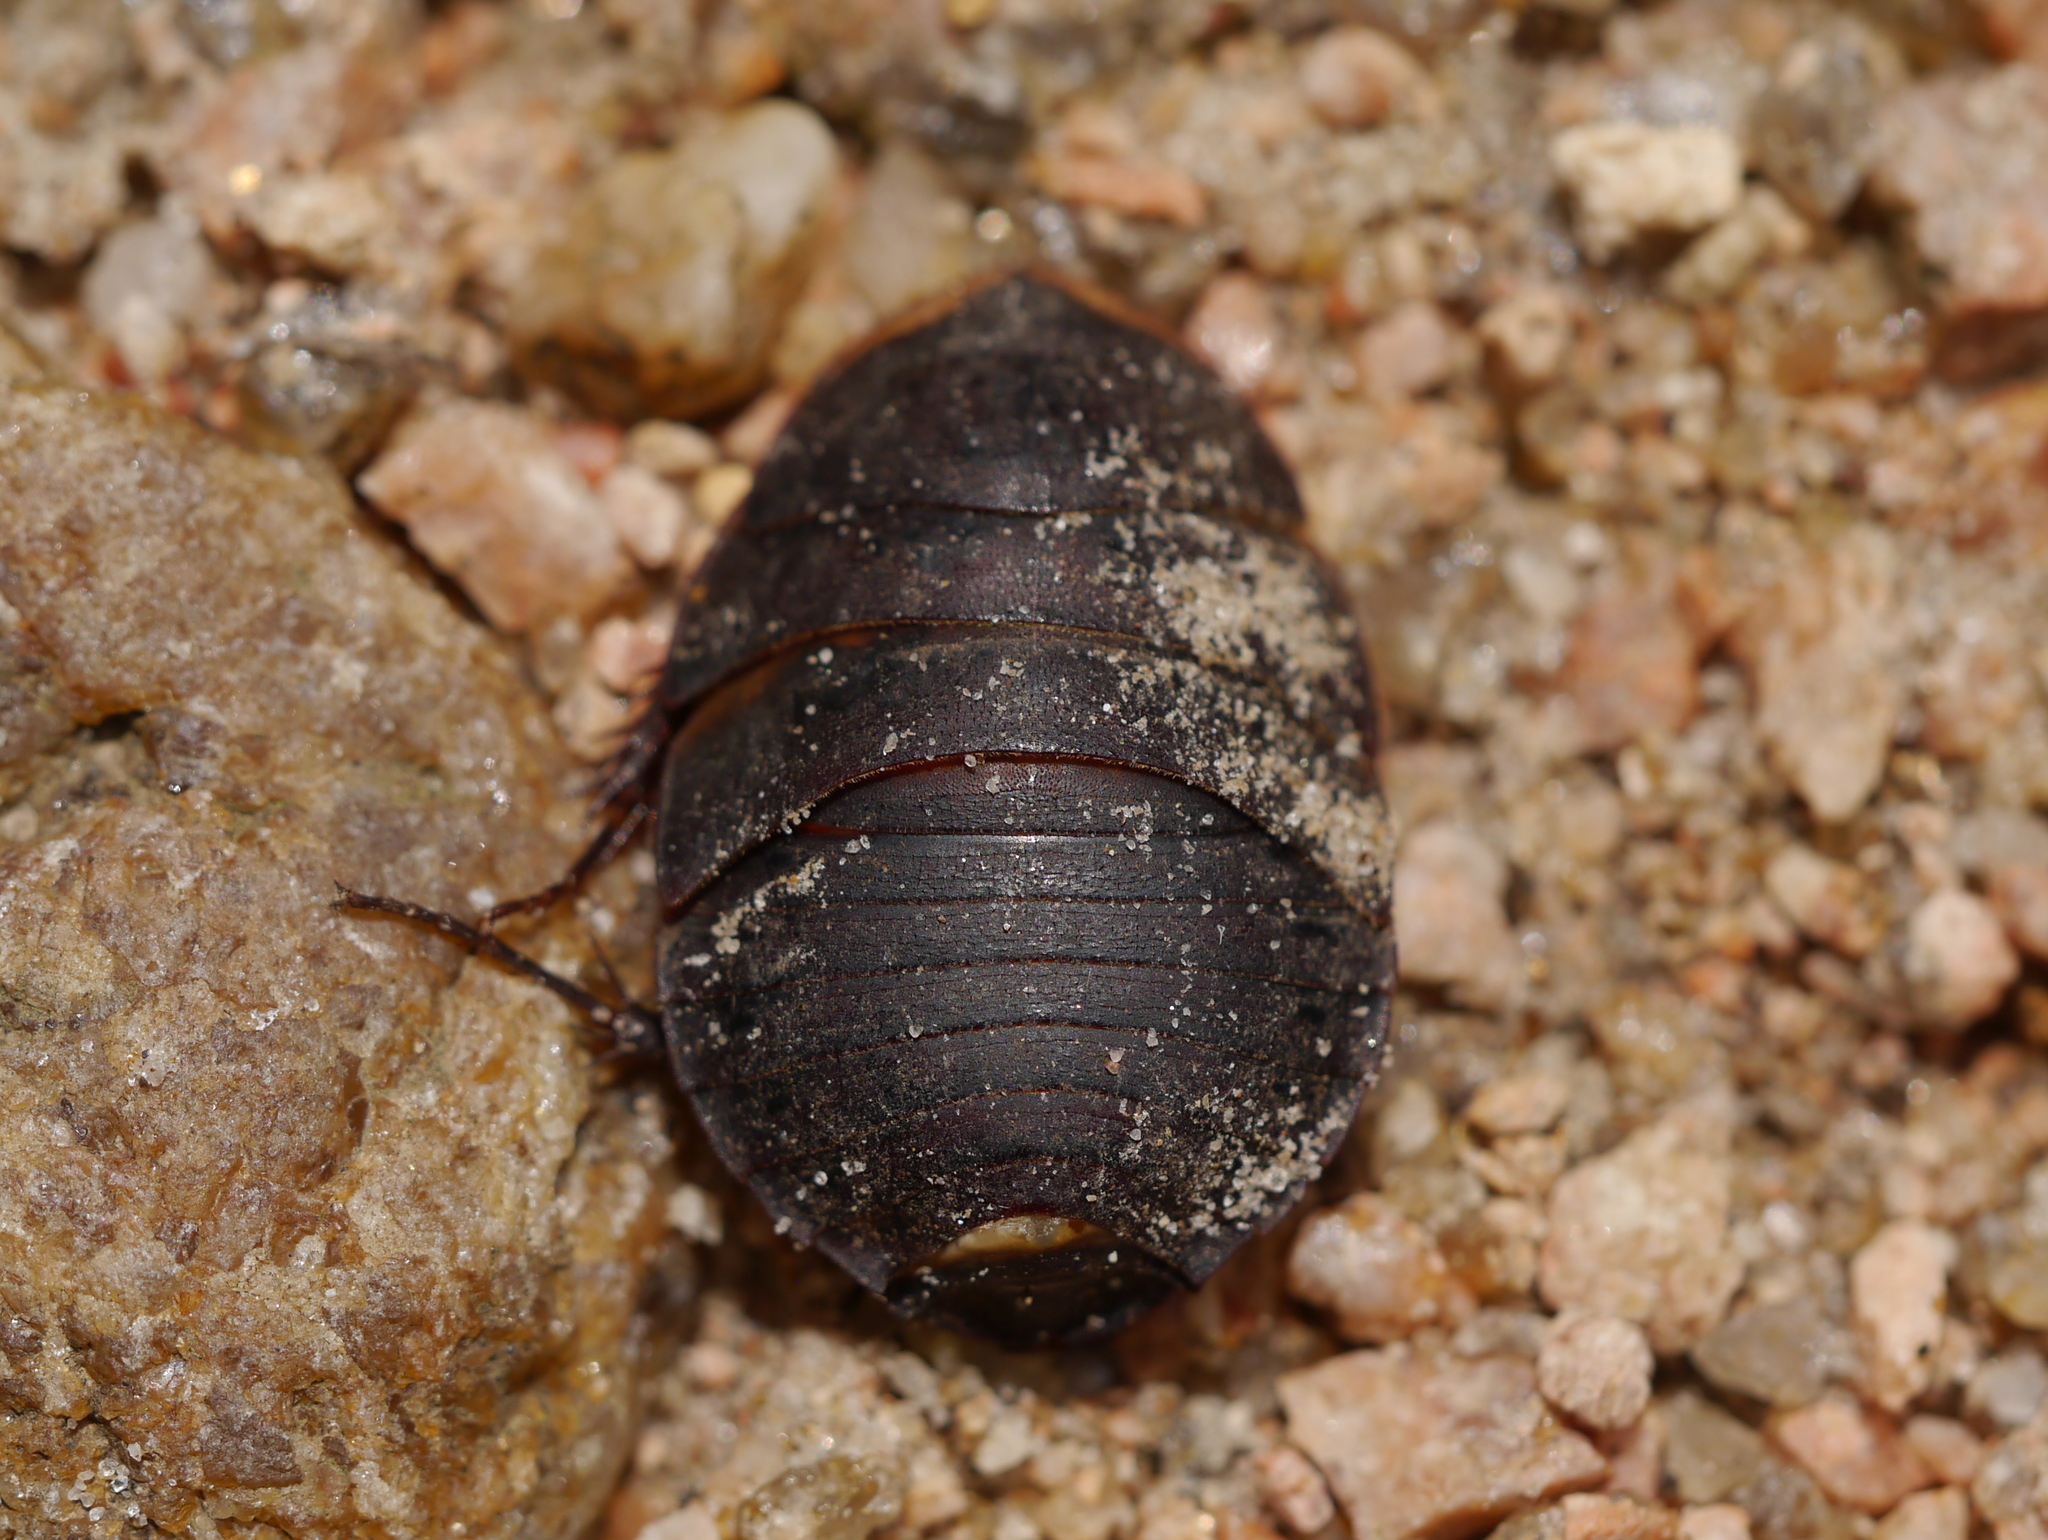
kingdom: Animalia
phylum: Arthropoda
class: Insecta
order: Blattodea
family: Corydiidae
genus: Arenivaga
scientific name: Arenivaga bolliana
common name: Boll's sand cockroach
